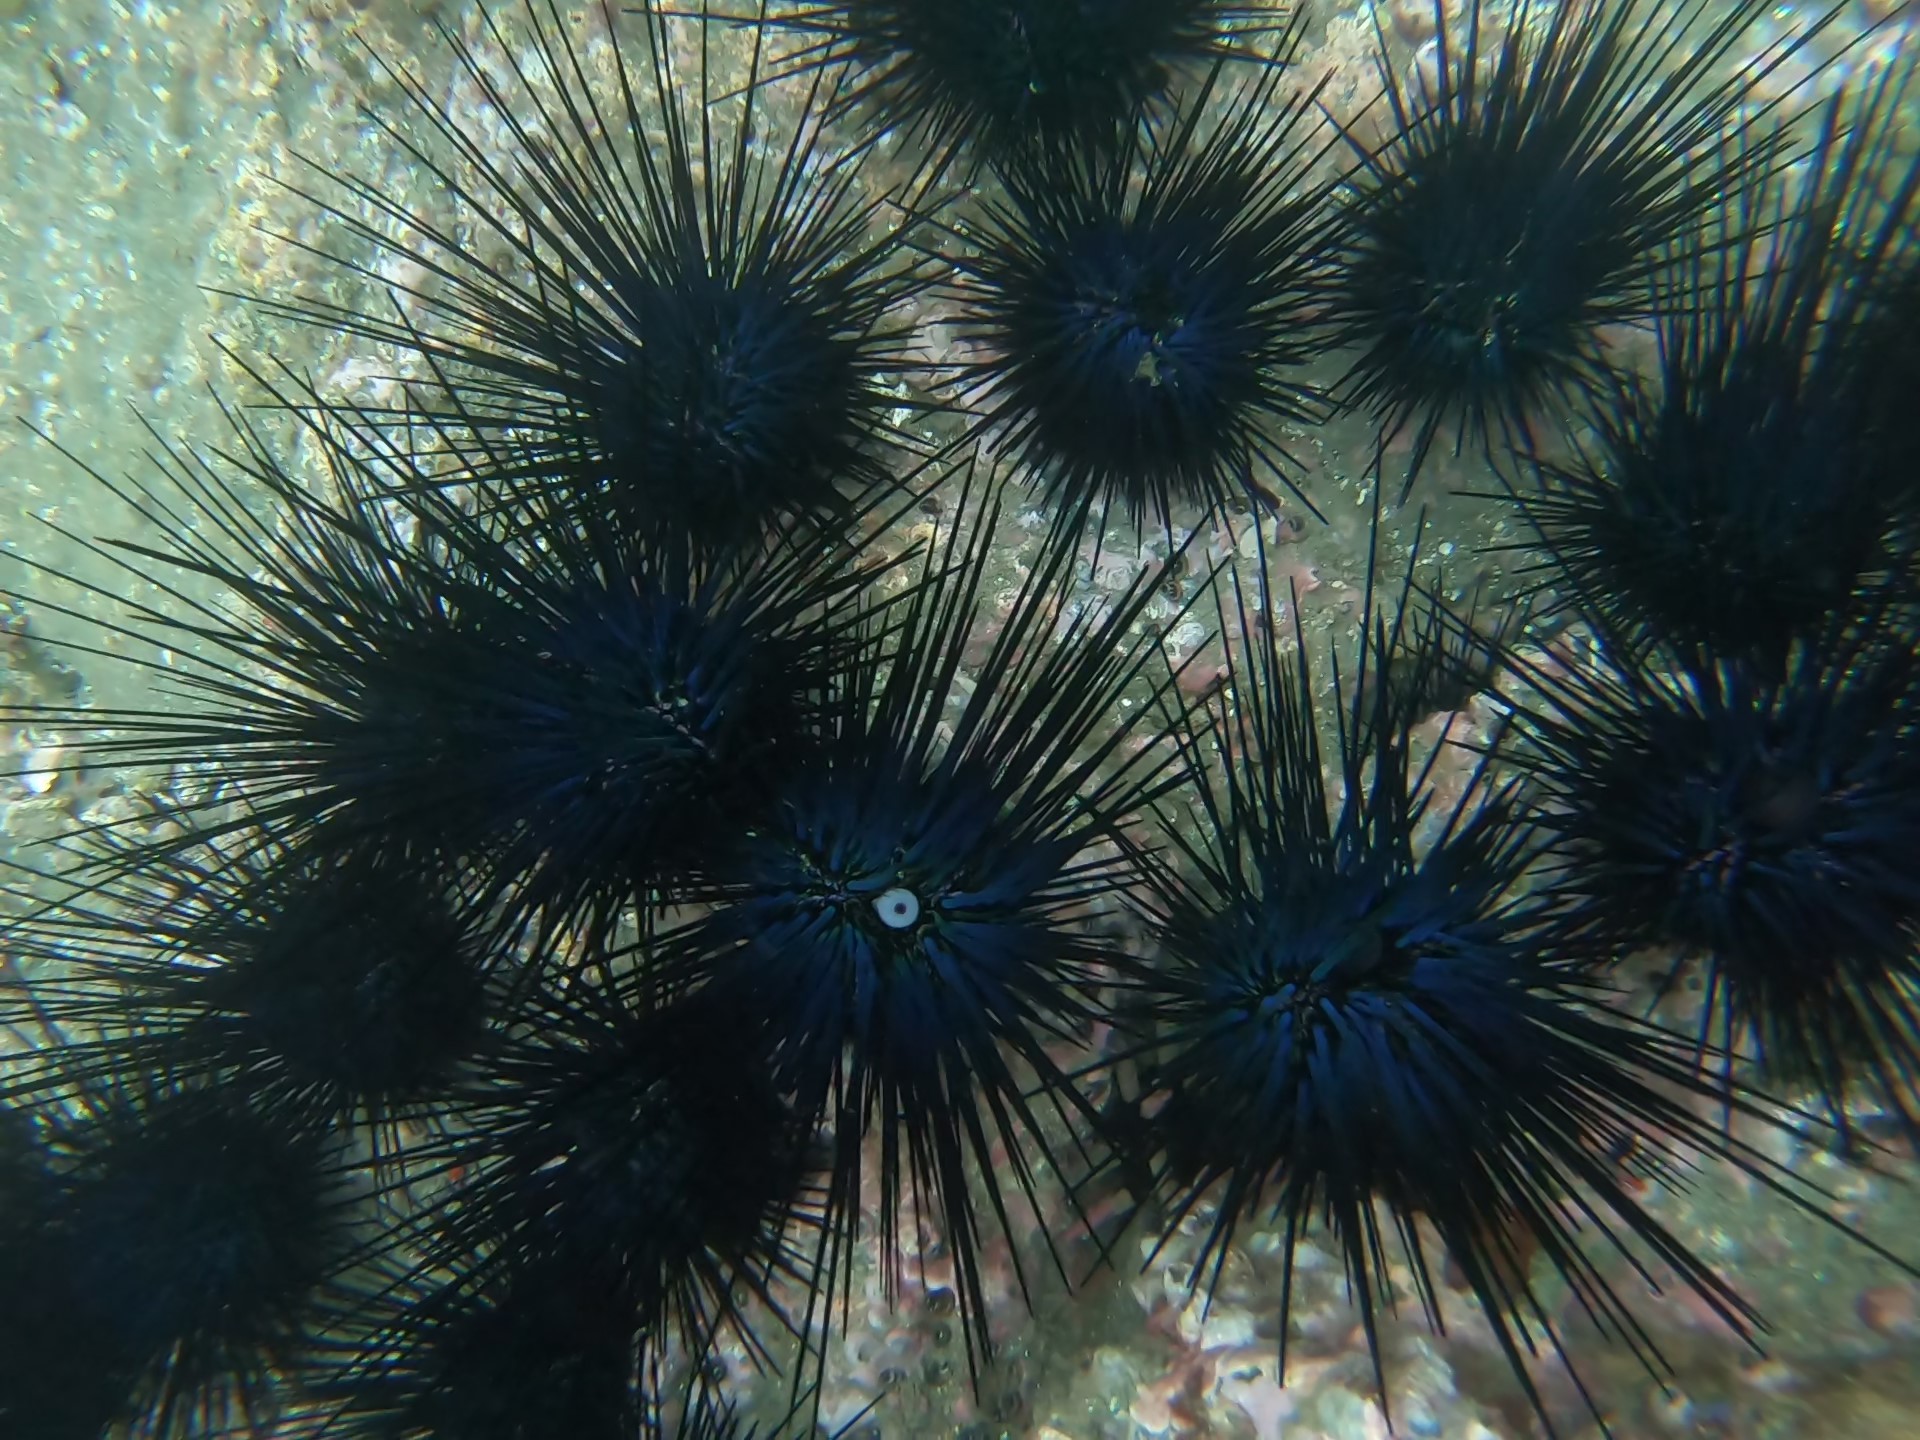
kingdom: Animalia
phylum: Echinodermata
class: Echinoidea
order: Diadematoida
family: Diadematidae
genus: Diadema
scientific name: Diadema mexicanum
